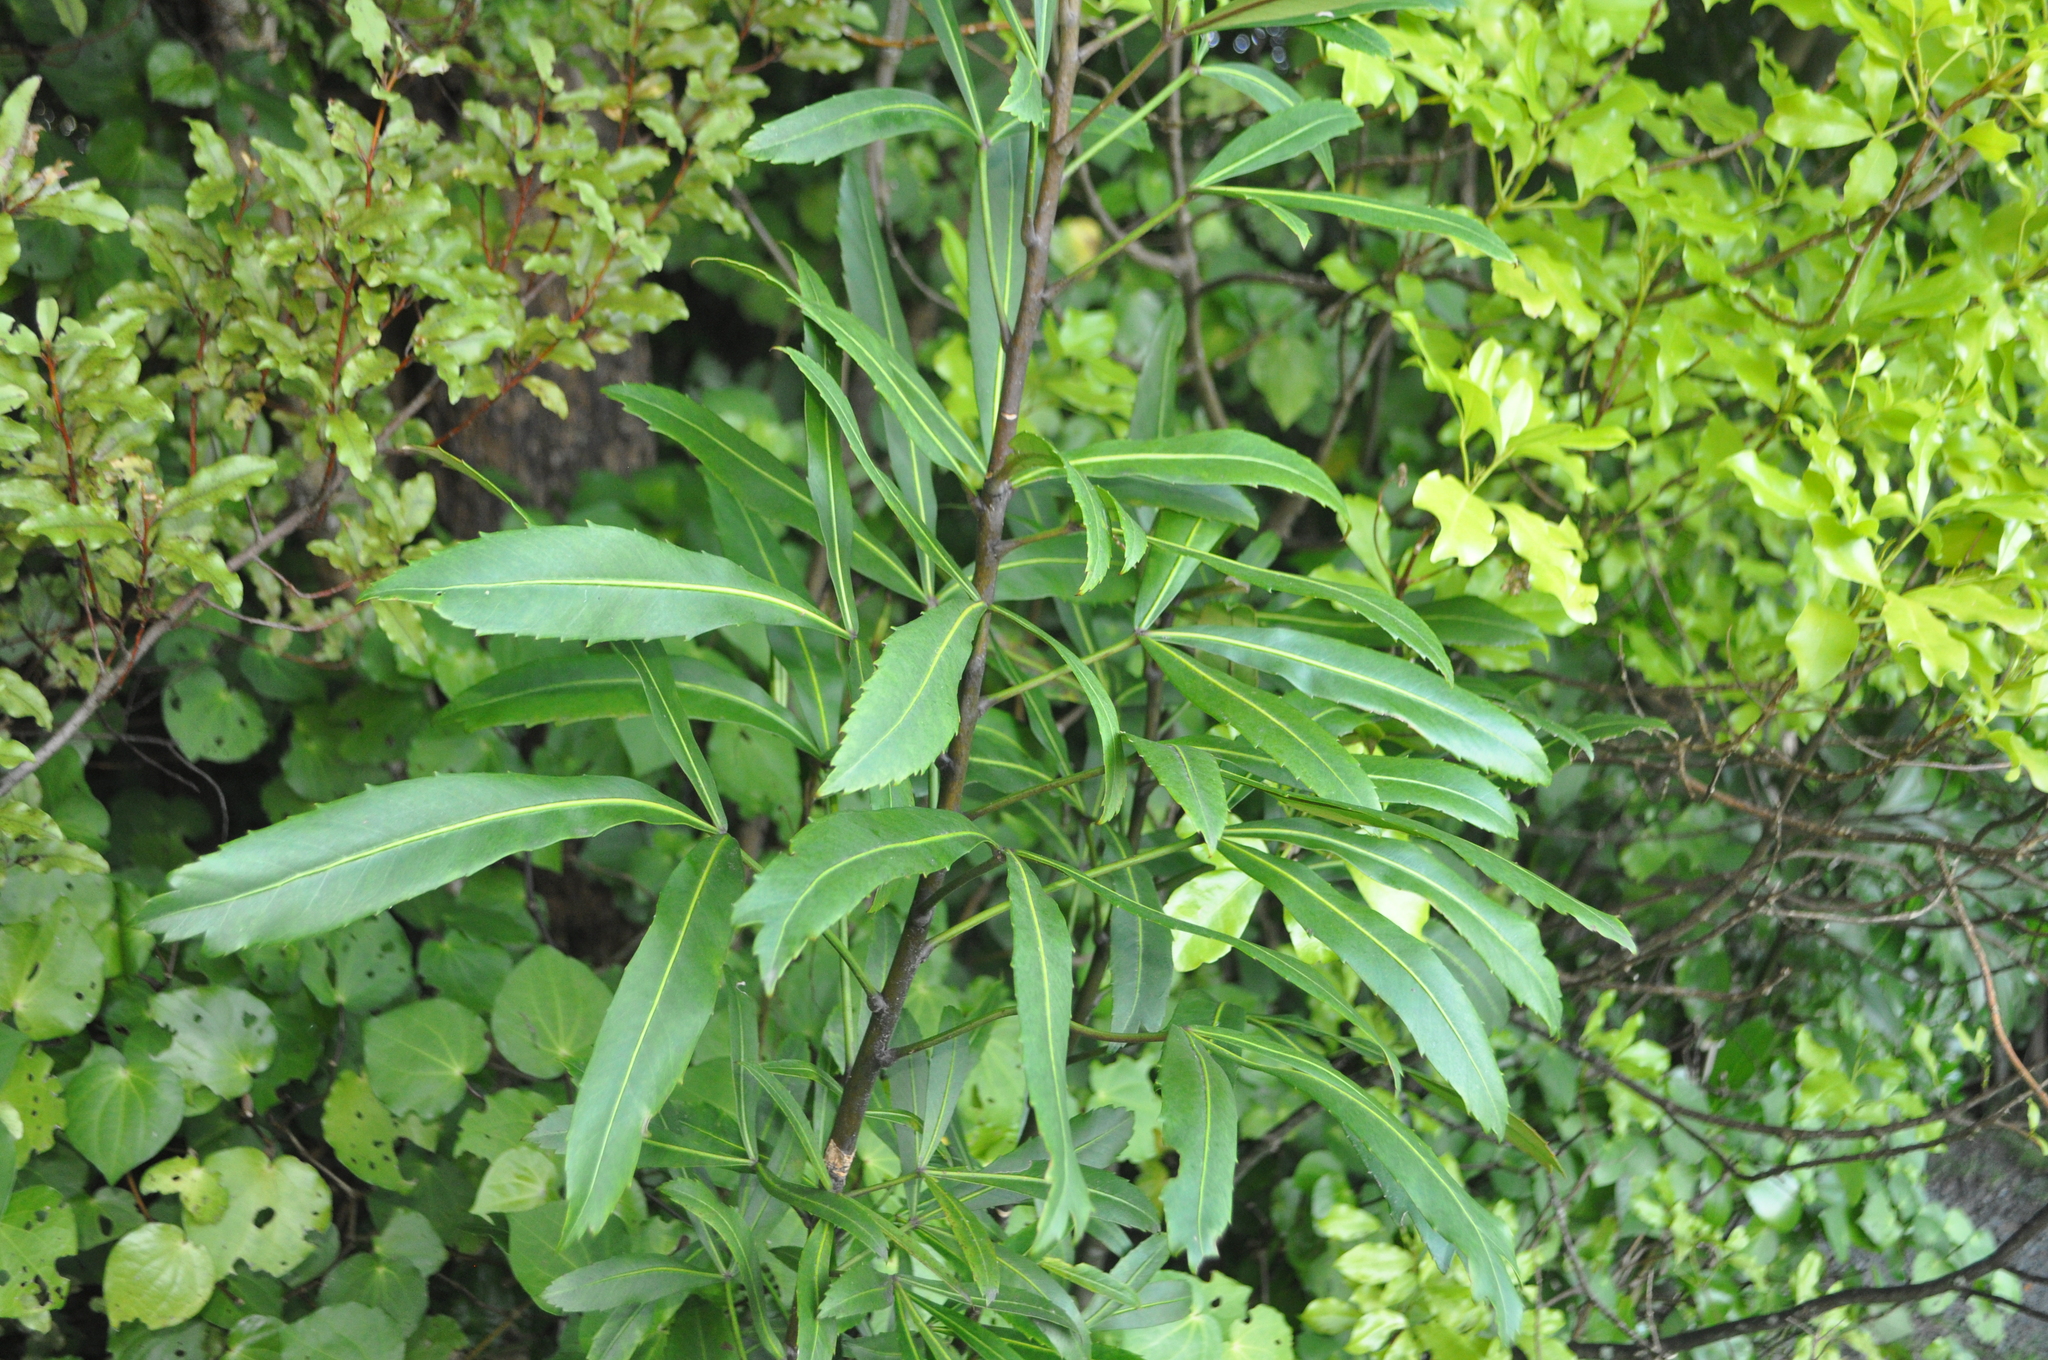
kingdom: Plantae
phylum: Tracheophyta
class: Magnoliopsida
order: Apiales
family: Araliaceae
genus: Pseudopanax
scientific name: Pseudopanax
